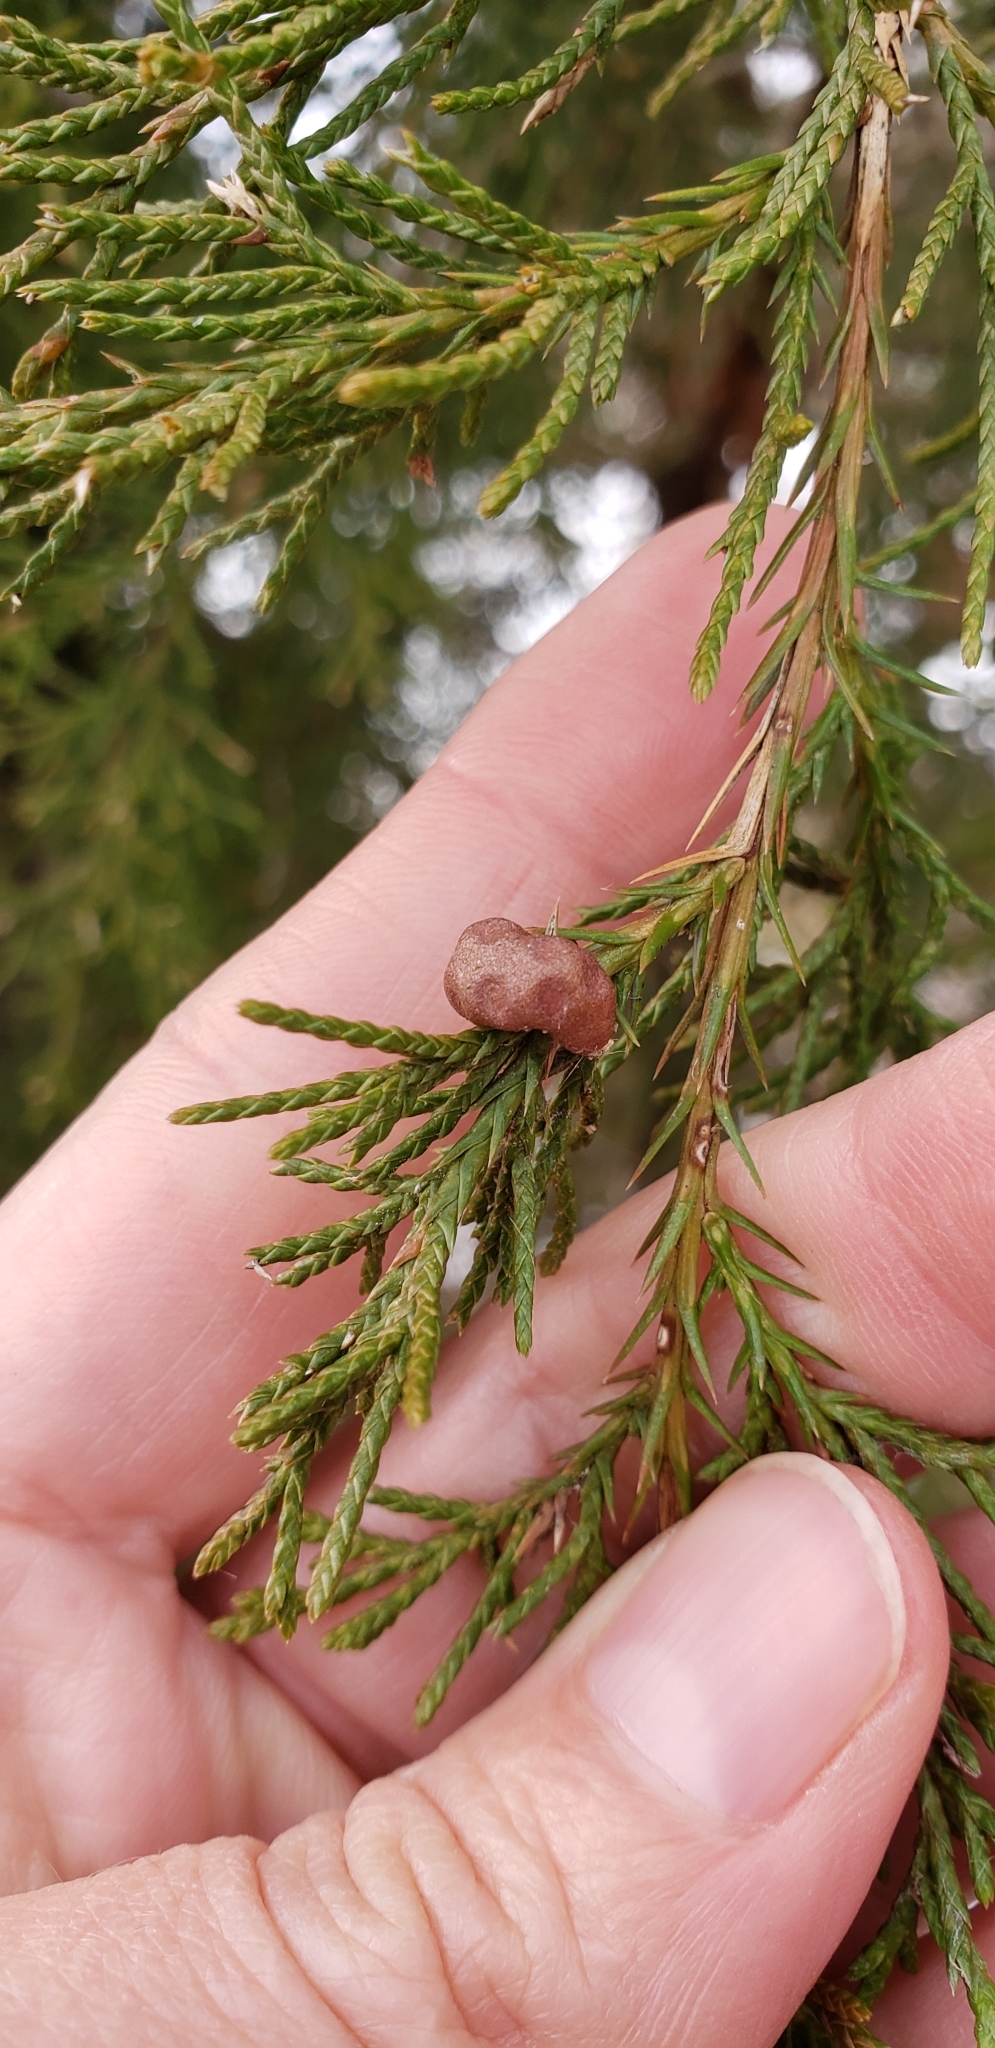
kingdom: Fungi
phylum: Basidiomycota
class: Pucciniomycetes
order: Pucciniales
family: Gymnosporangiaceae
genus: Gymnosporangium
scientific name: Gymnosporangium juniperi-virginianae
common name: Juniper-apple rust
